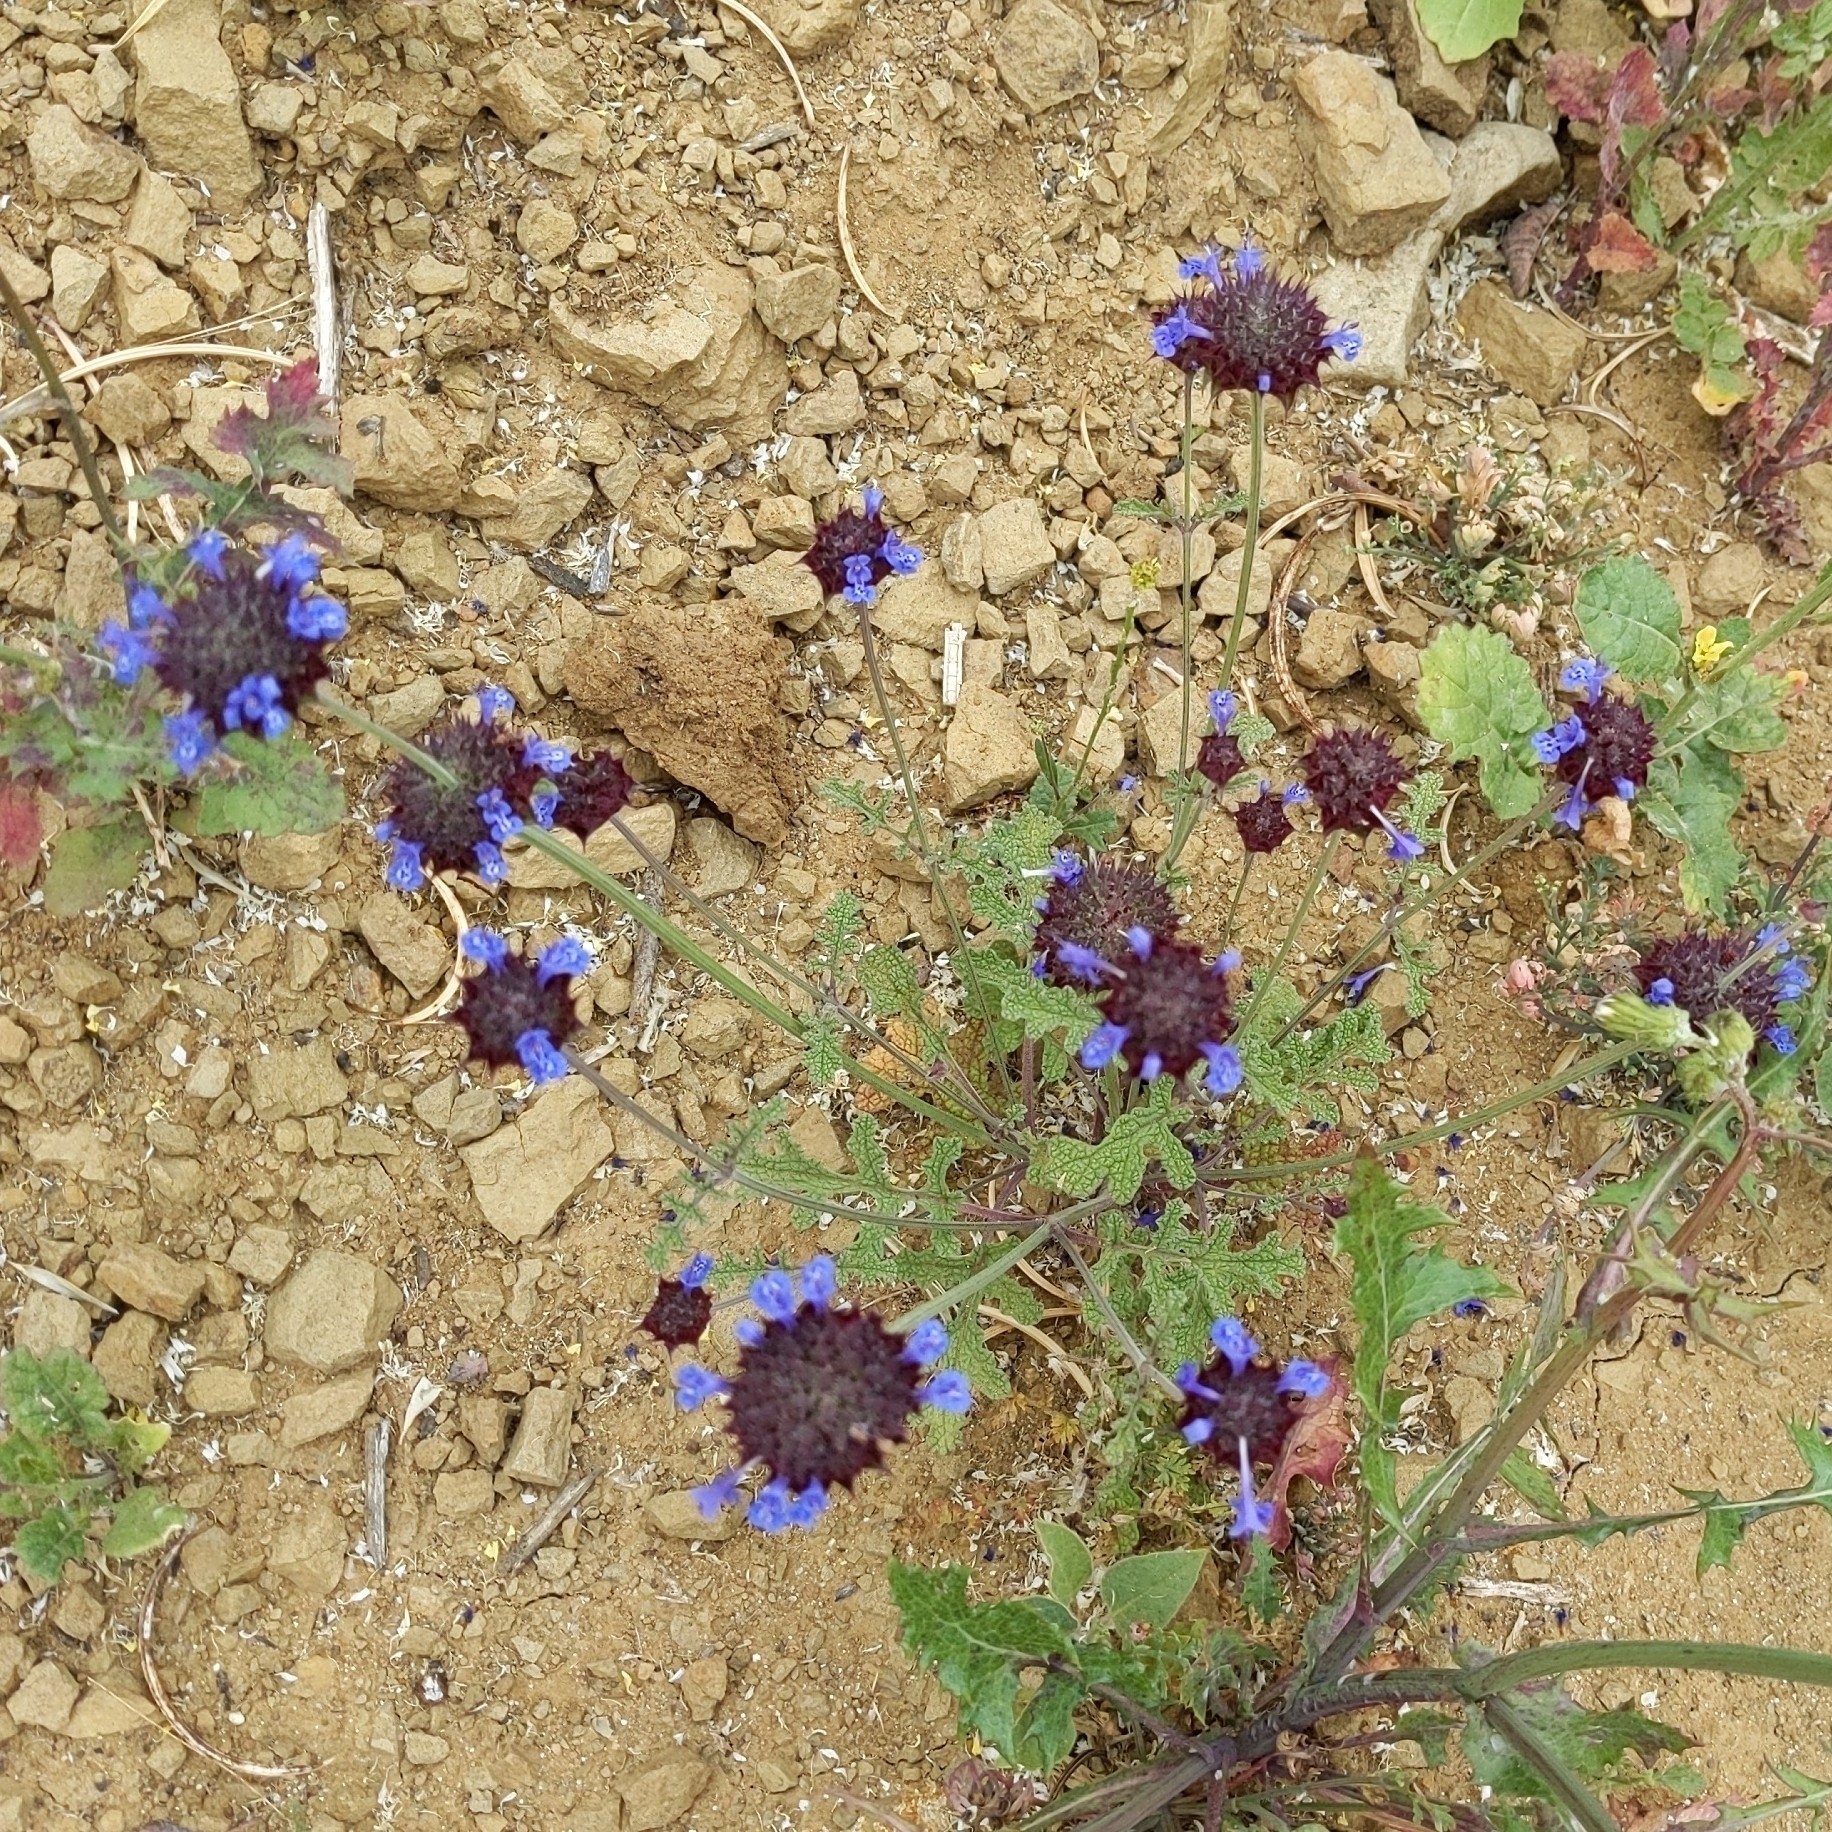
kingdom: Plantae
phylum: Tracheophyta
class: Magnoliopsida
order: Lamiales
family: Lamiaceae
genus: Salvia
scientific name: Salvia columbariae
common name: Chia
